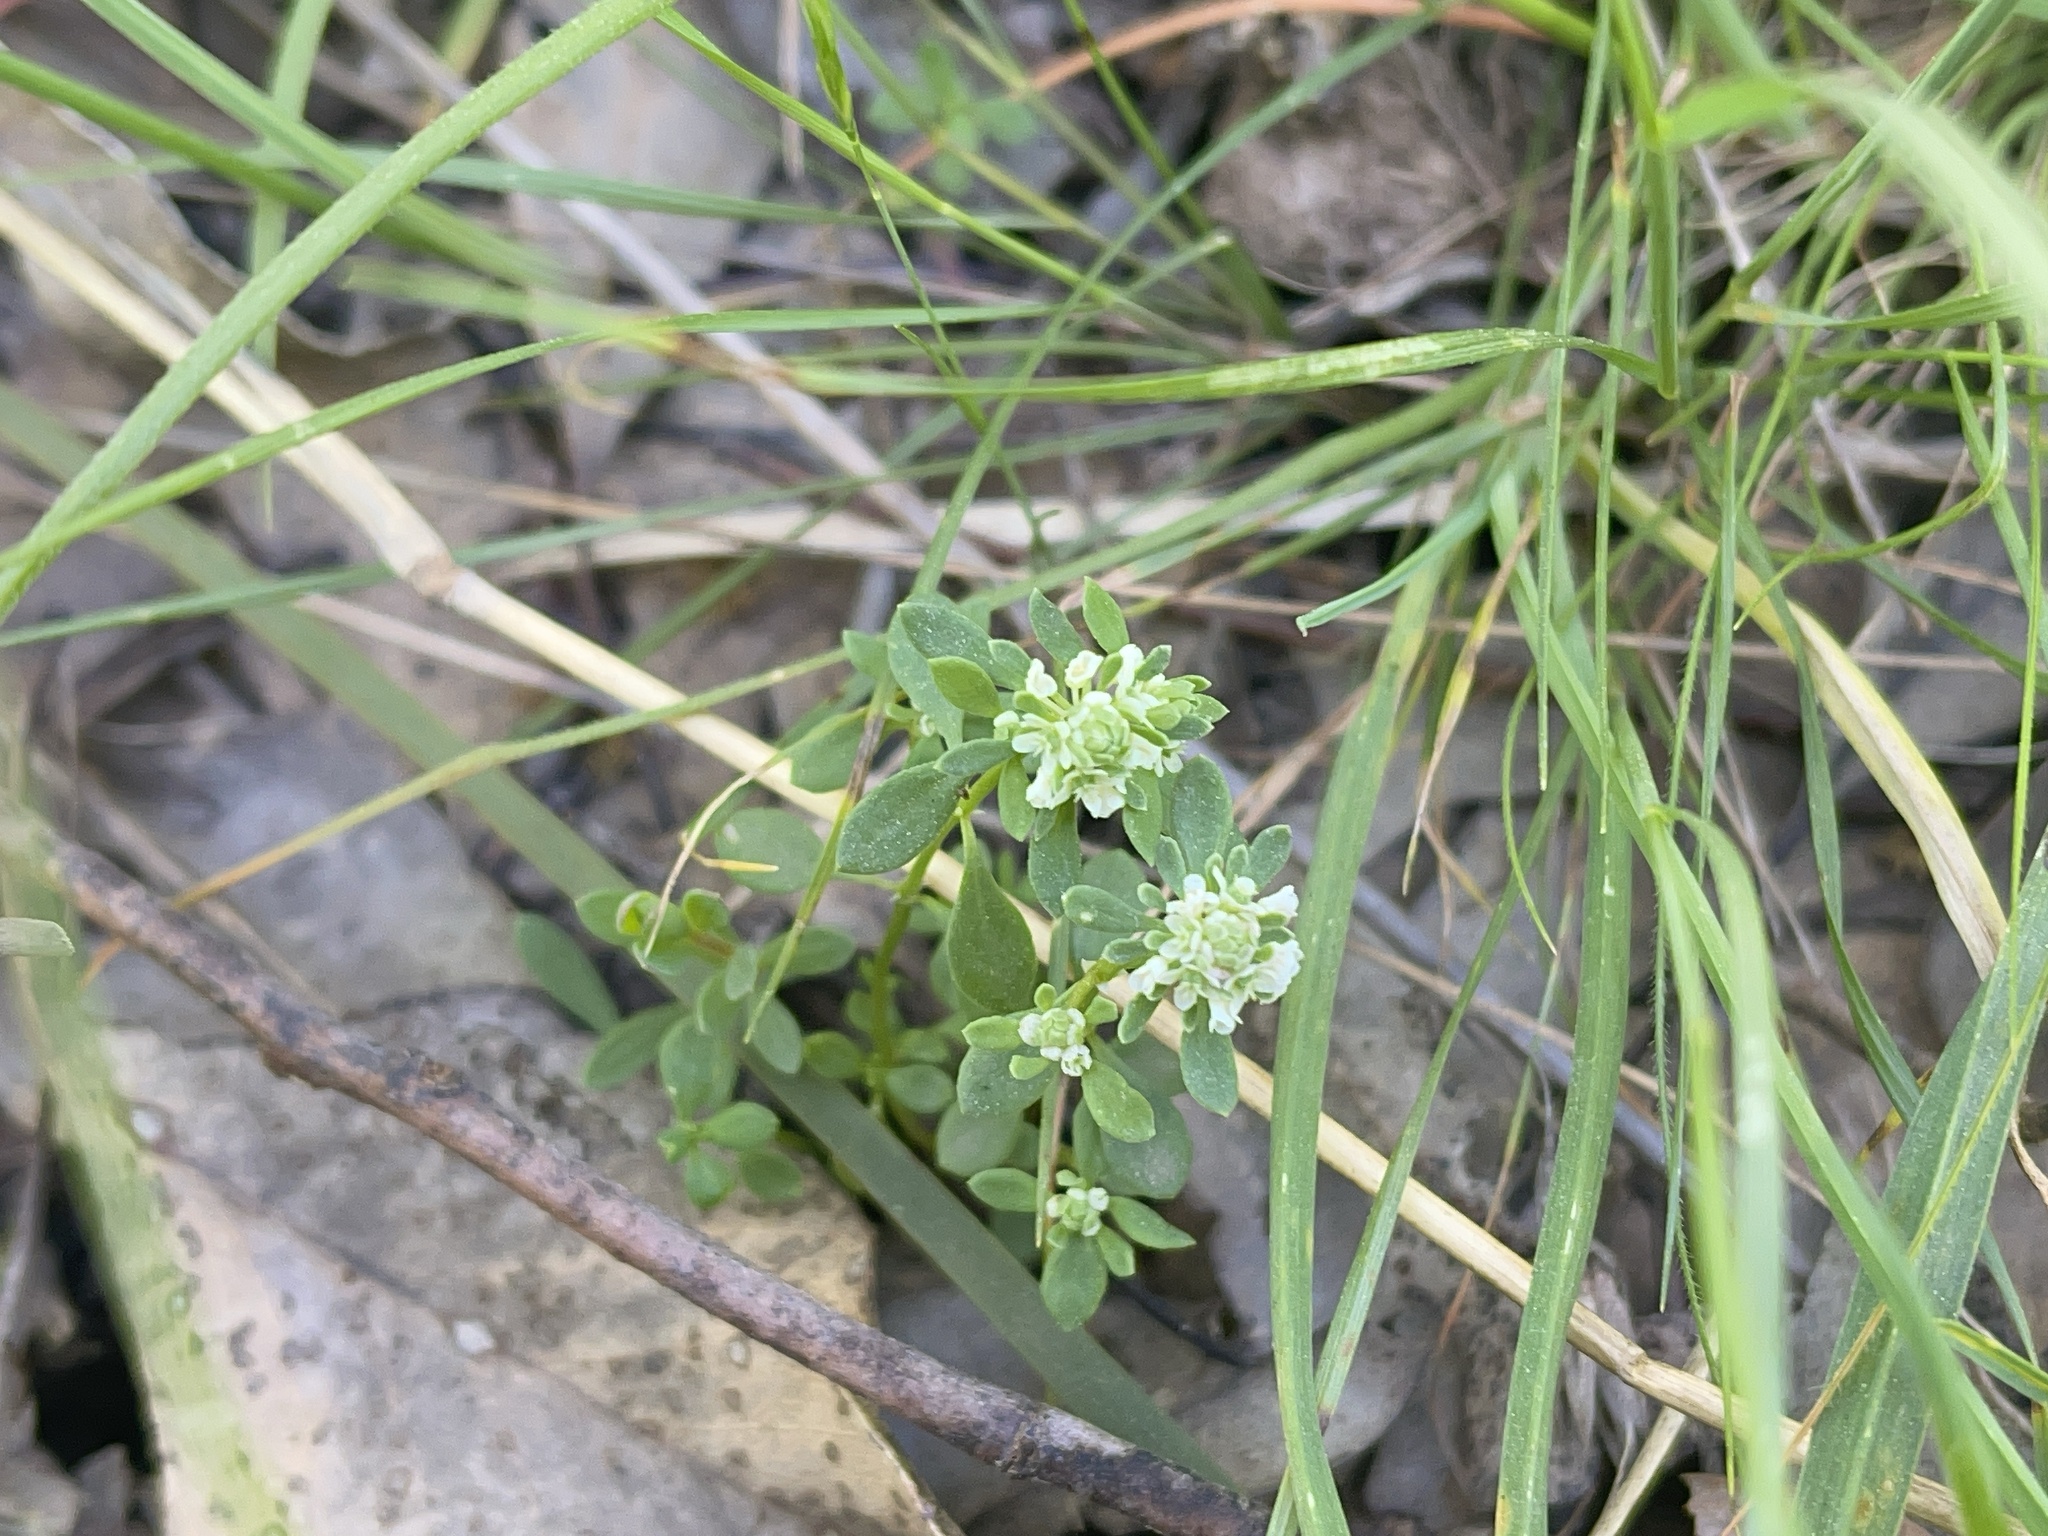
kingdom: Plantae
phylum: Tracheophyta
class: Magnoliopsida
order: Malpighiales
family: Phyllanthaceae
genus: Poranthera
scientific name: Poranthera microphylla
